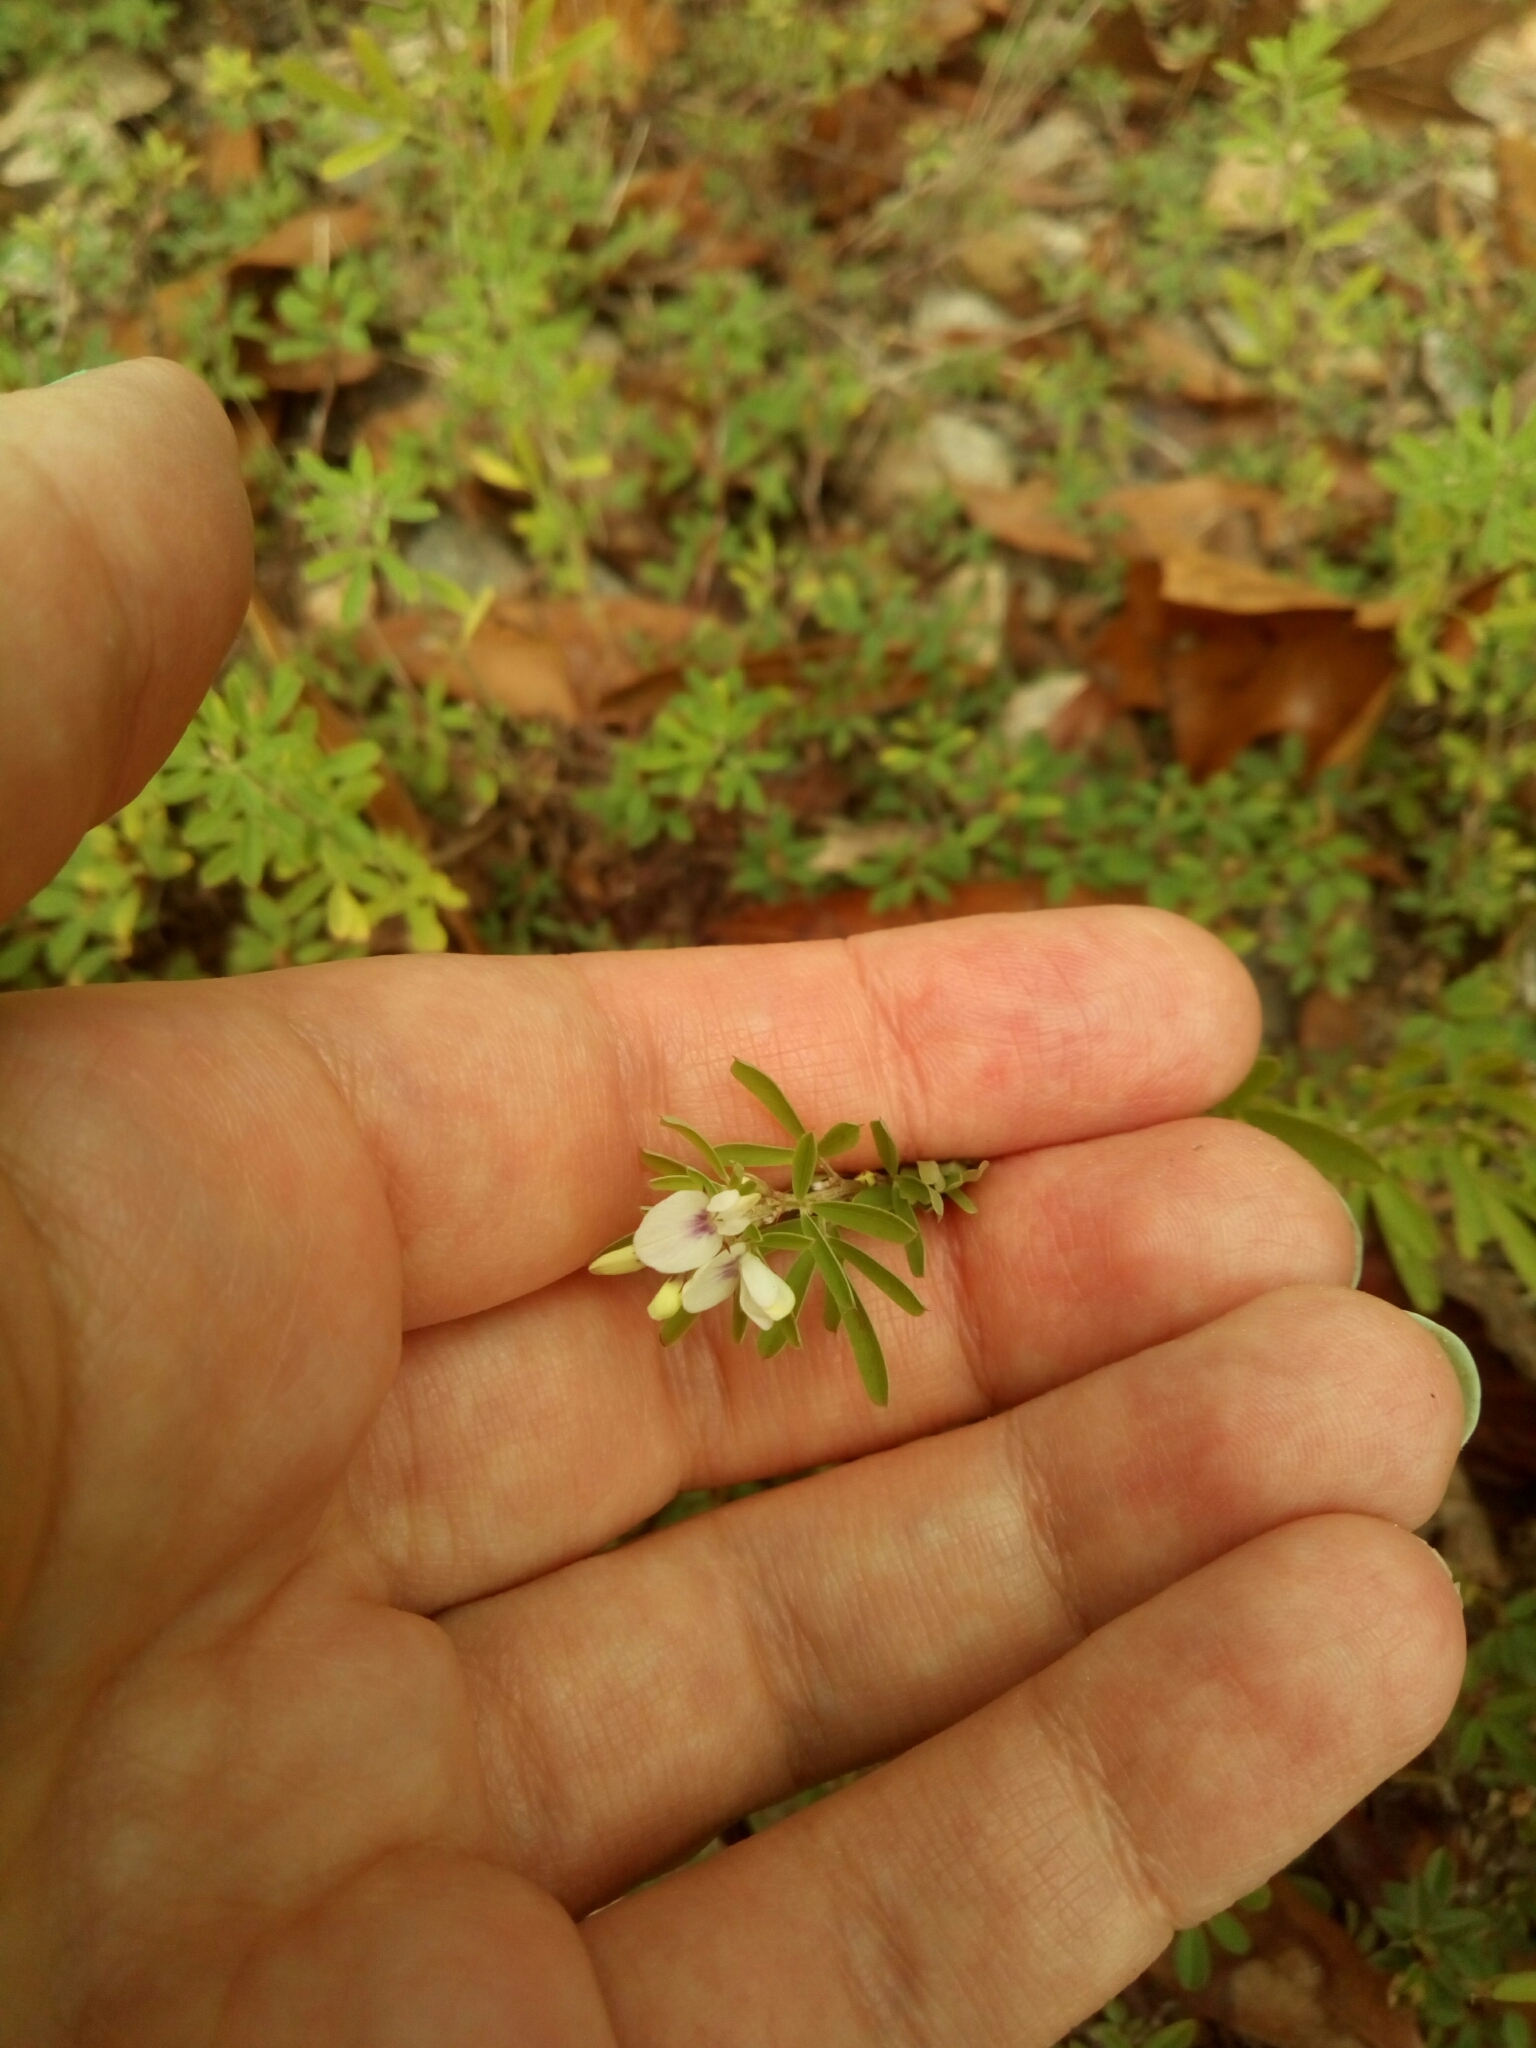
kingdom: Plantae
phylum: Tracheophyta
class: Magnoliopsida
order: Fabales
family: Fabaceae
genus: Lespedeza
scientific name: Lespedeza cuneata
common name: Chinese bush-clover
